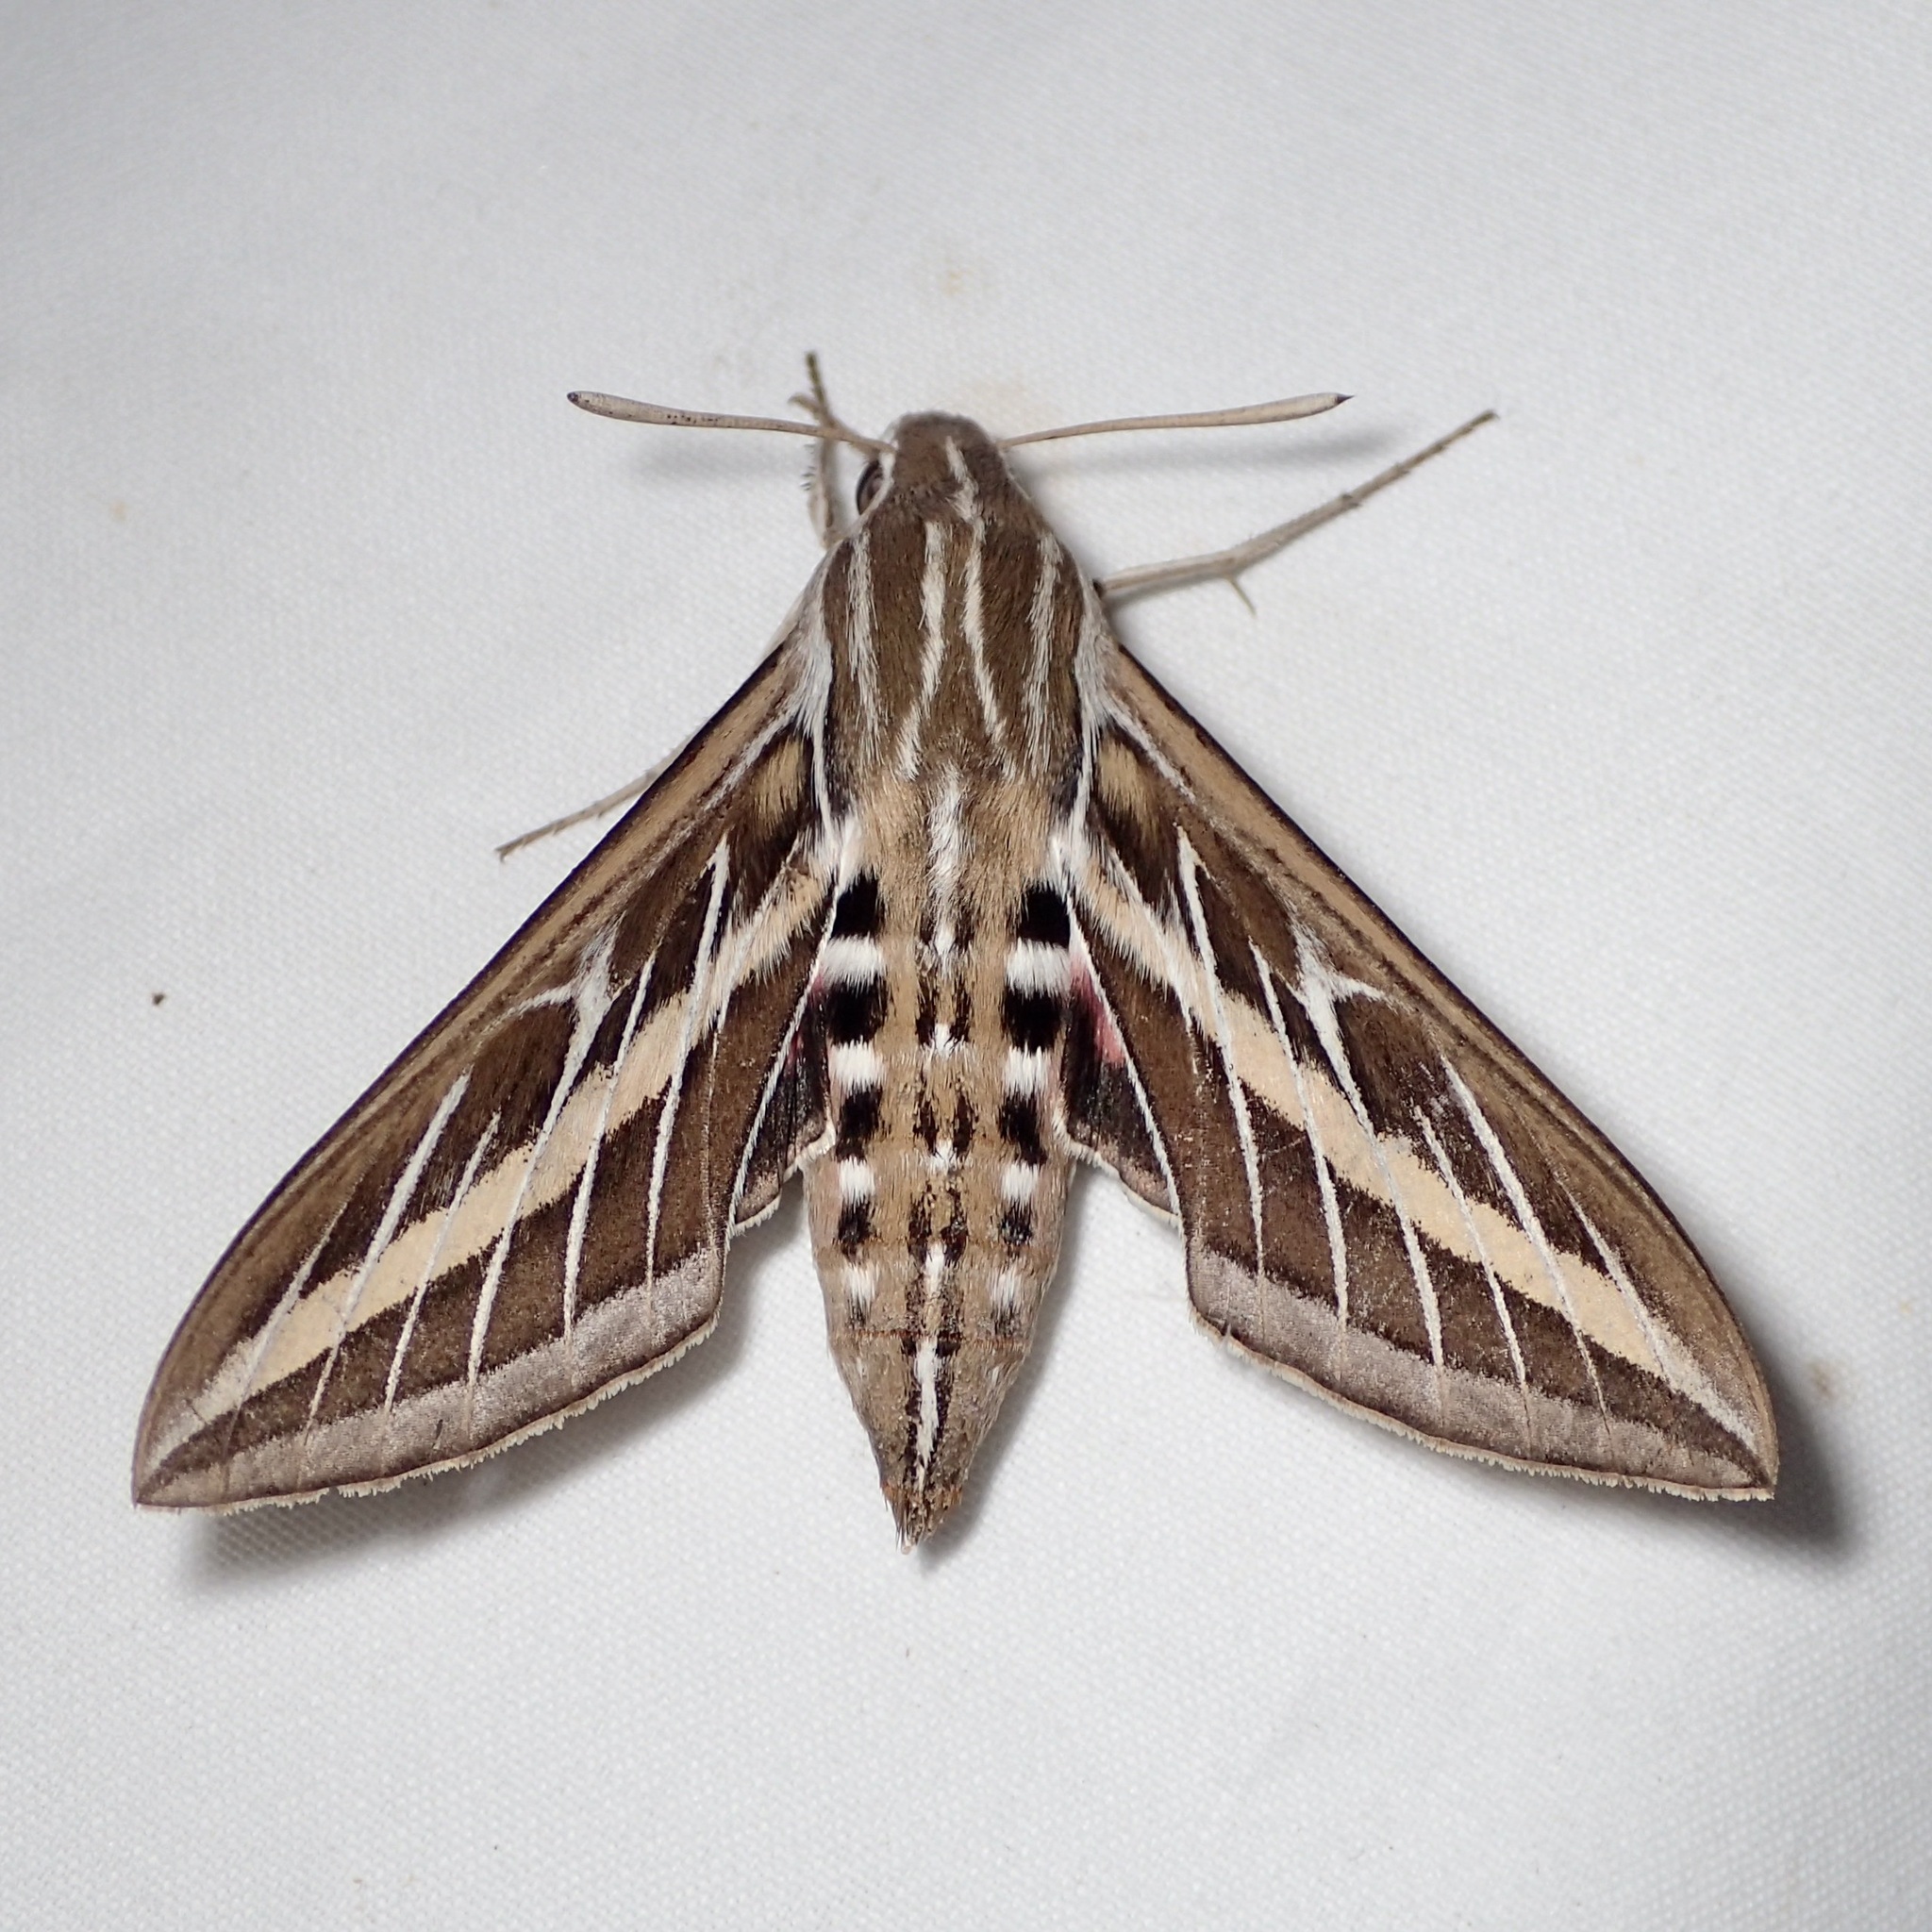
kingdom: Animalia
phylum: Arthropoda
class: Insecta
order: Lepidoptera
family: Sphingidae
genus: Hyles
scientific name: Hyles lineata
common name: White-lined sphinx
